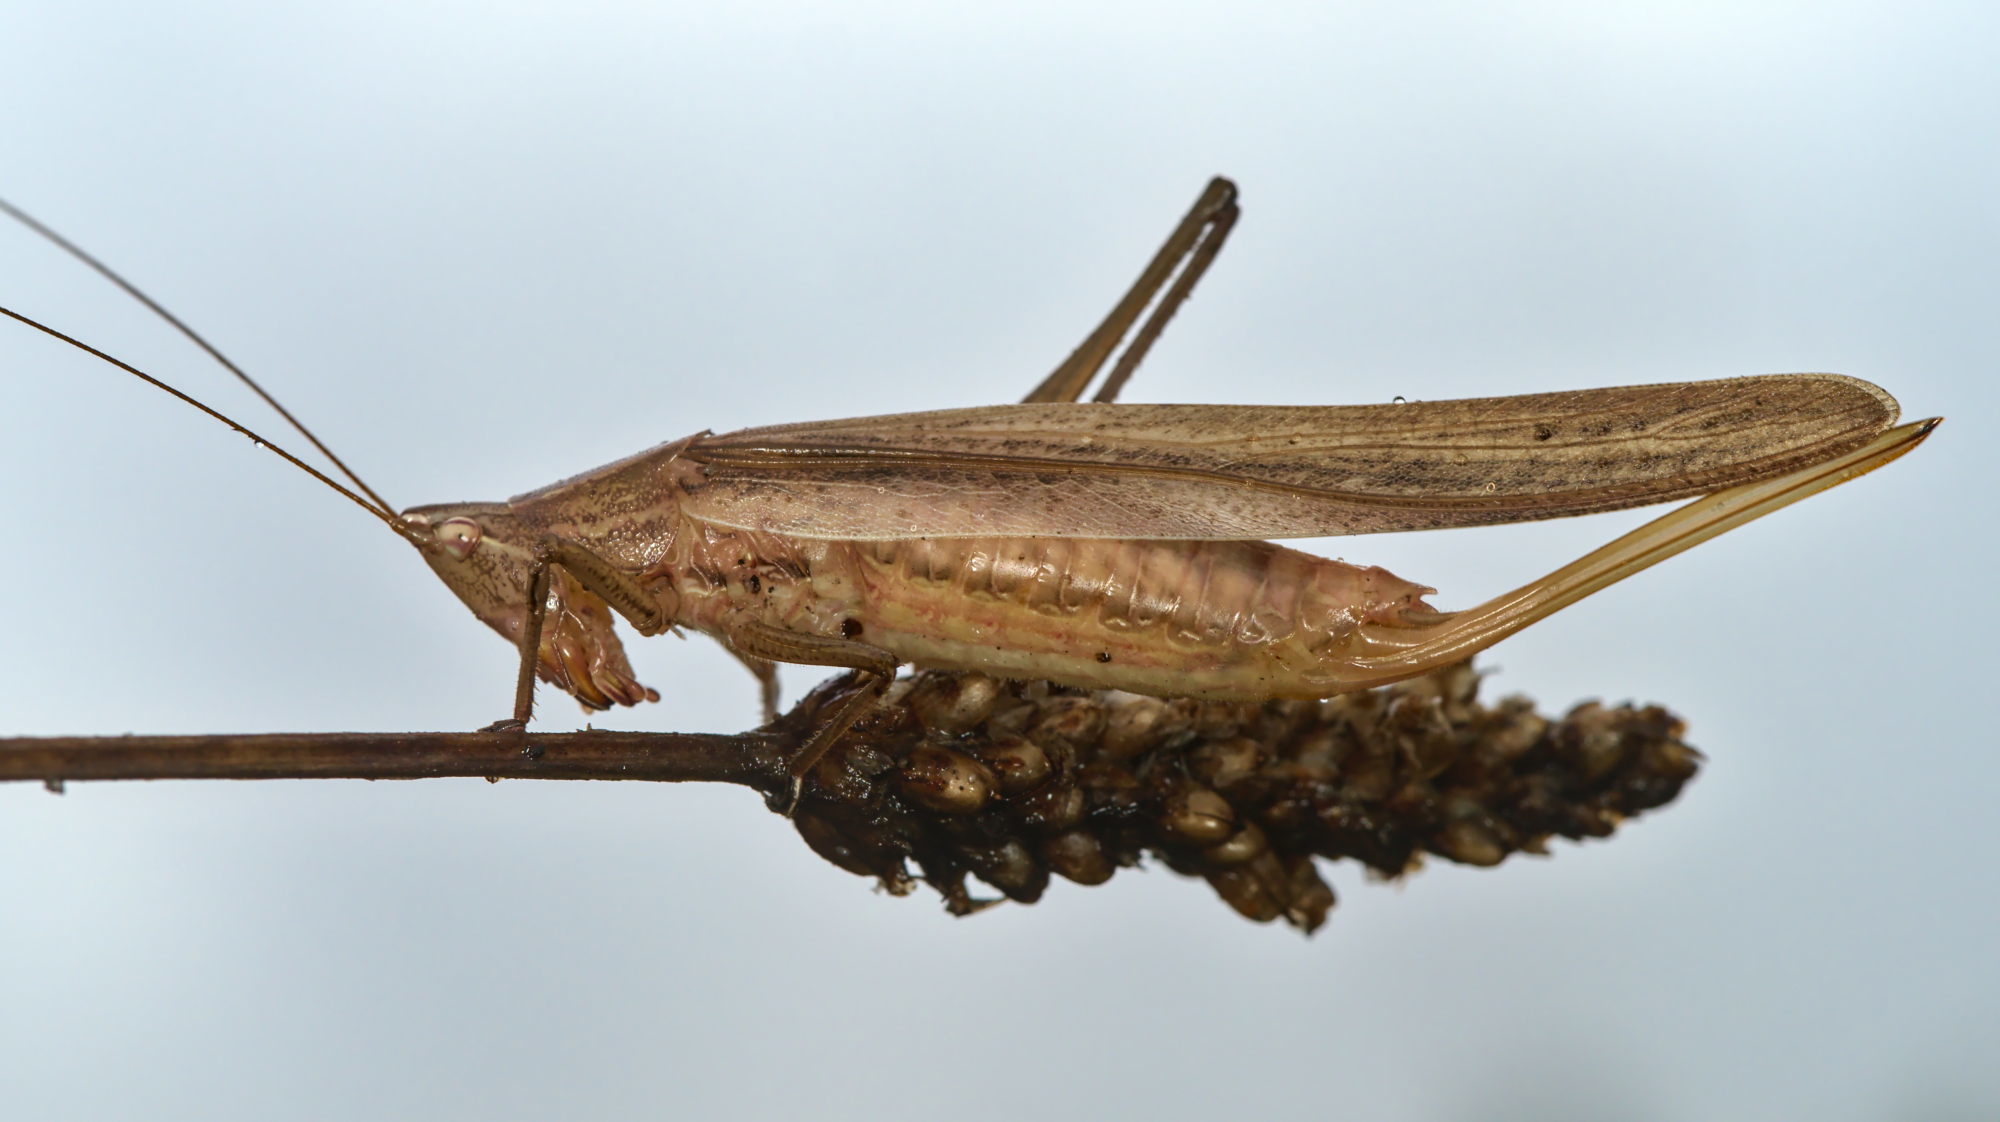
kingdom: Animalia
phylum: Arthropoda
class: Insecta
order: Orthoptera
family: Tettigoniidae
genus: Ruspolia
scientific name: Ruspolia nitidula
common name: Large conehead
